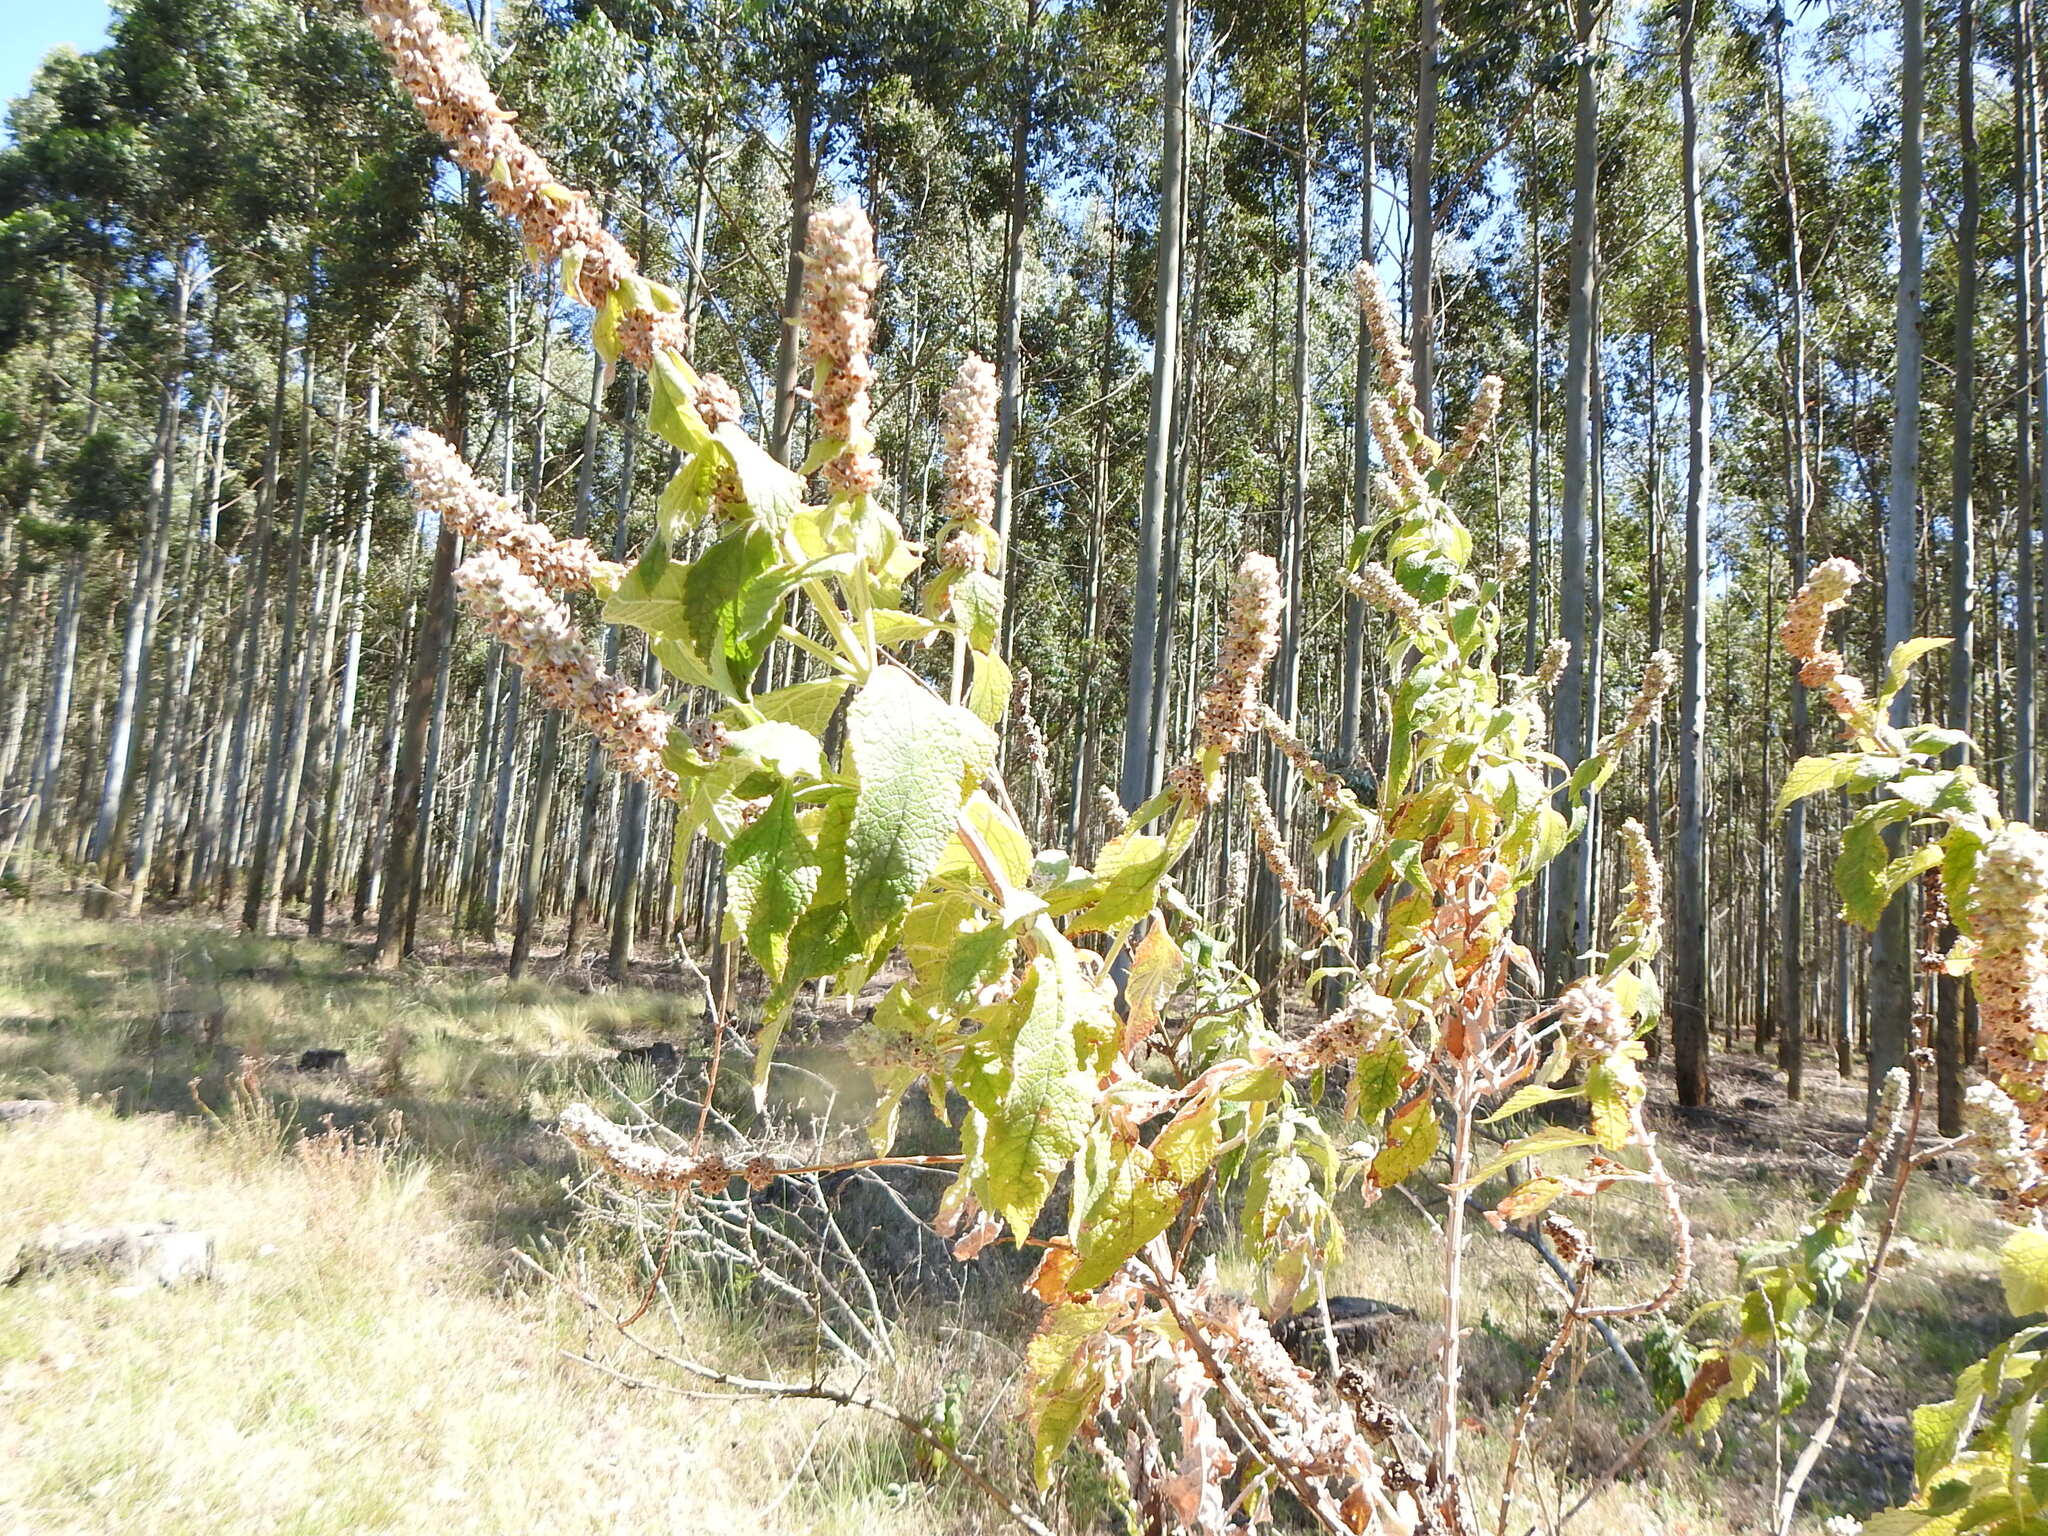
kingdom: Plantae
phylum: Tracheophyta
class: Magnoliopsida
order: Lamiales
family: Scrophulariaceae
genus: Buddleja
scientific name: Buddleja stachyoides
